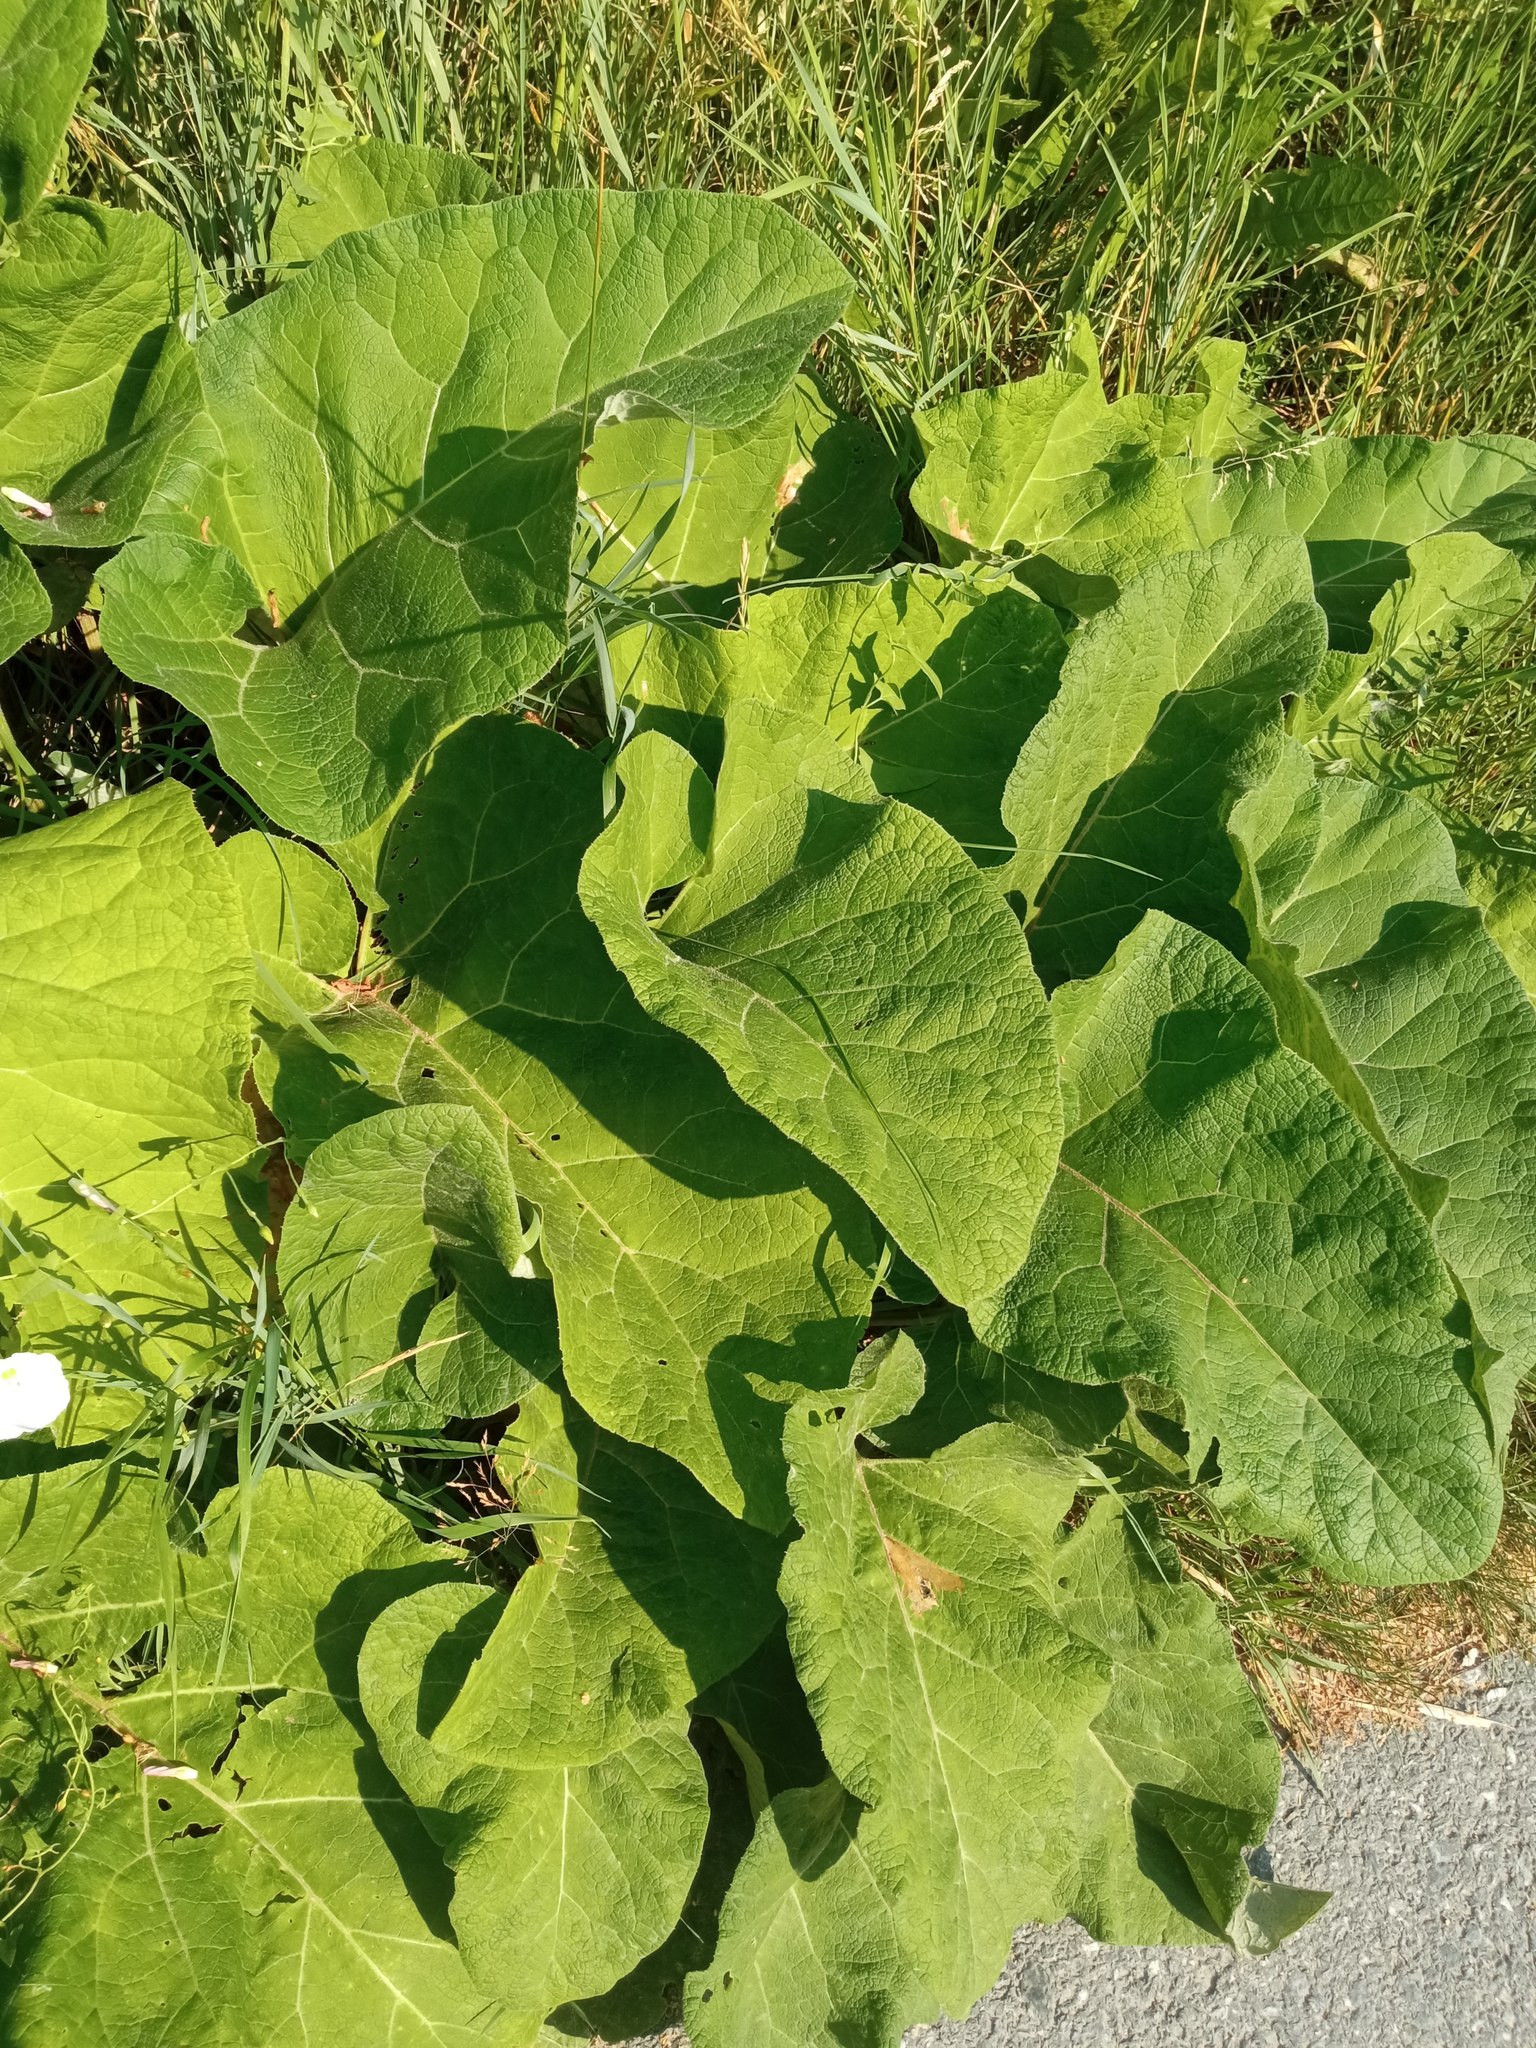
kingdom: Plantae
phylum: Tracheophyta
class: Magnoliopsida
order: Asterales
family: Asteraceae
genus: Arctium
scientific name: Arctium tomentosum
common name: Woolly burdock
